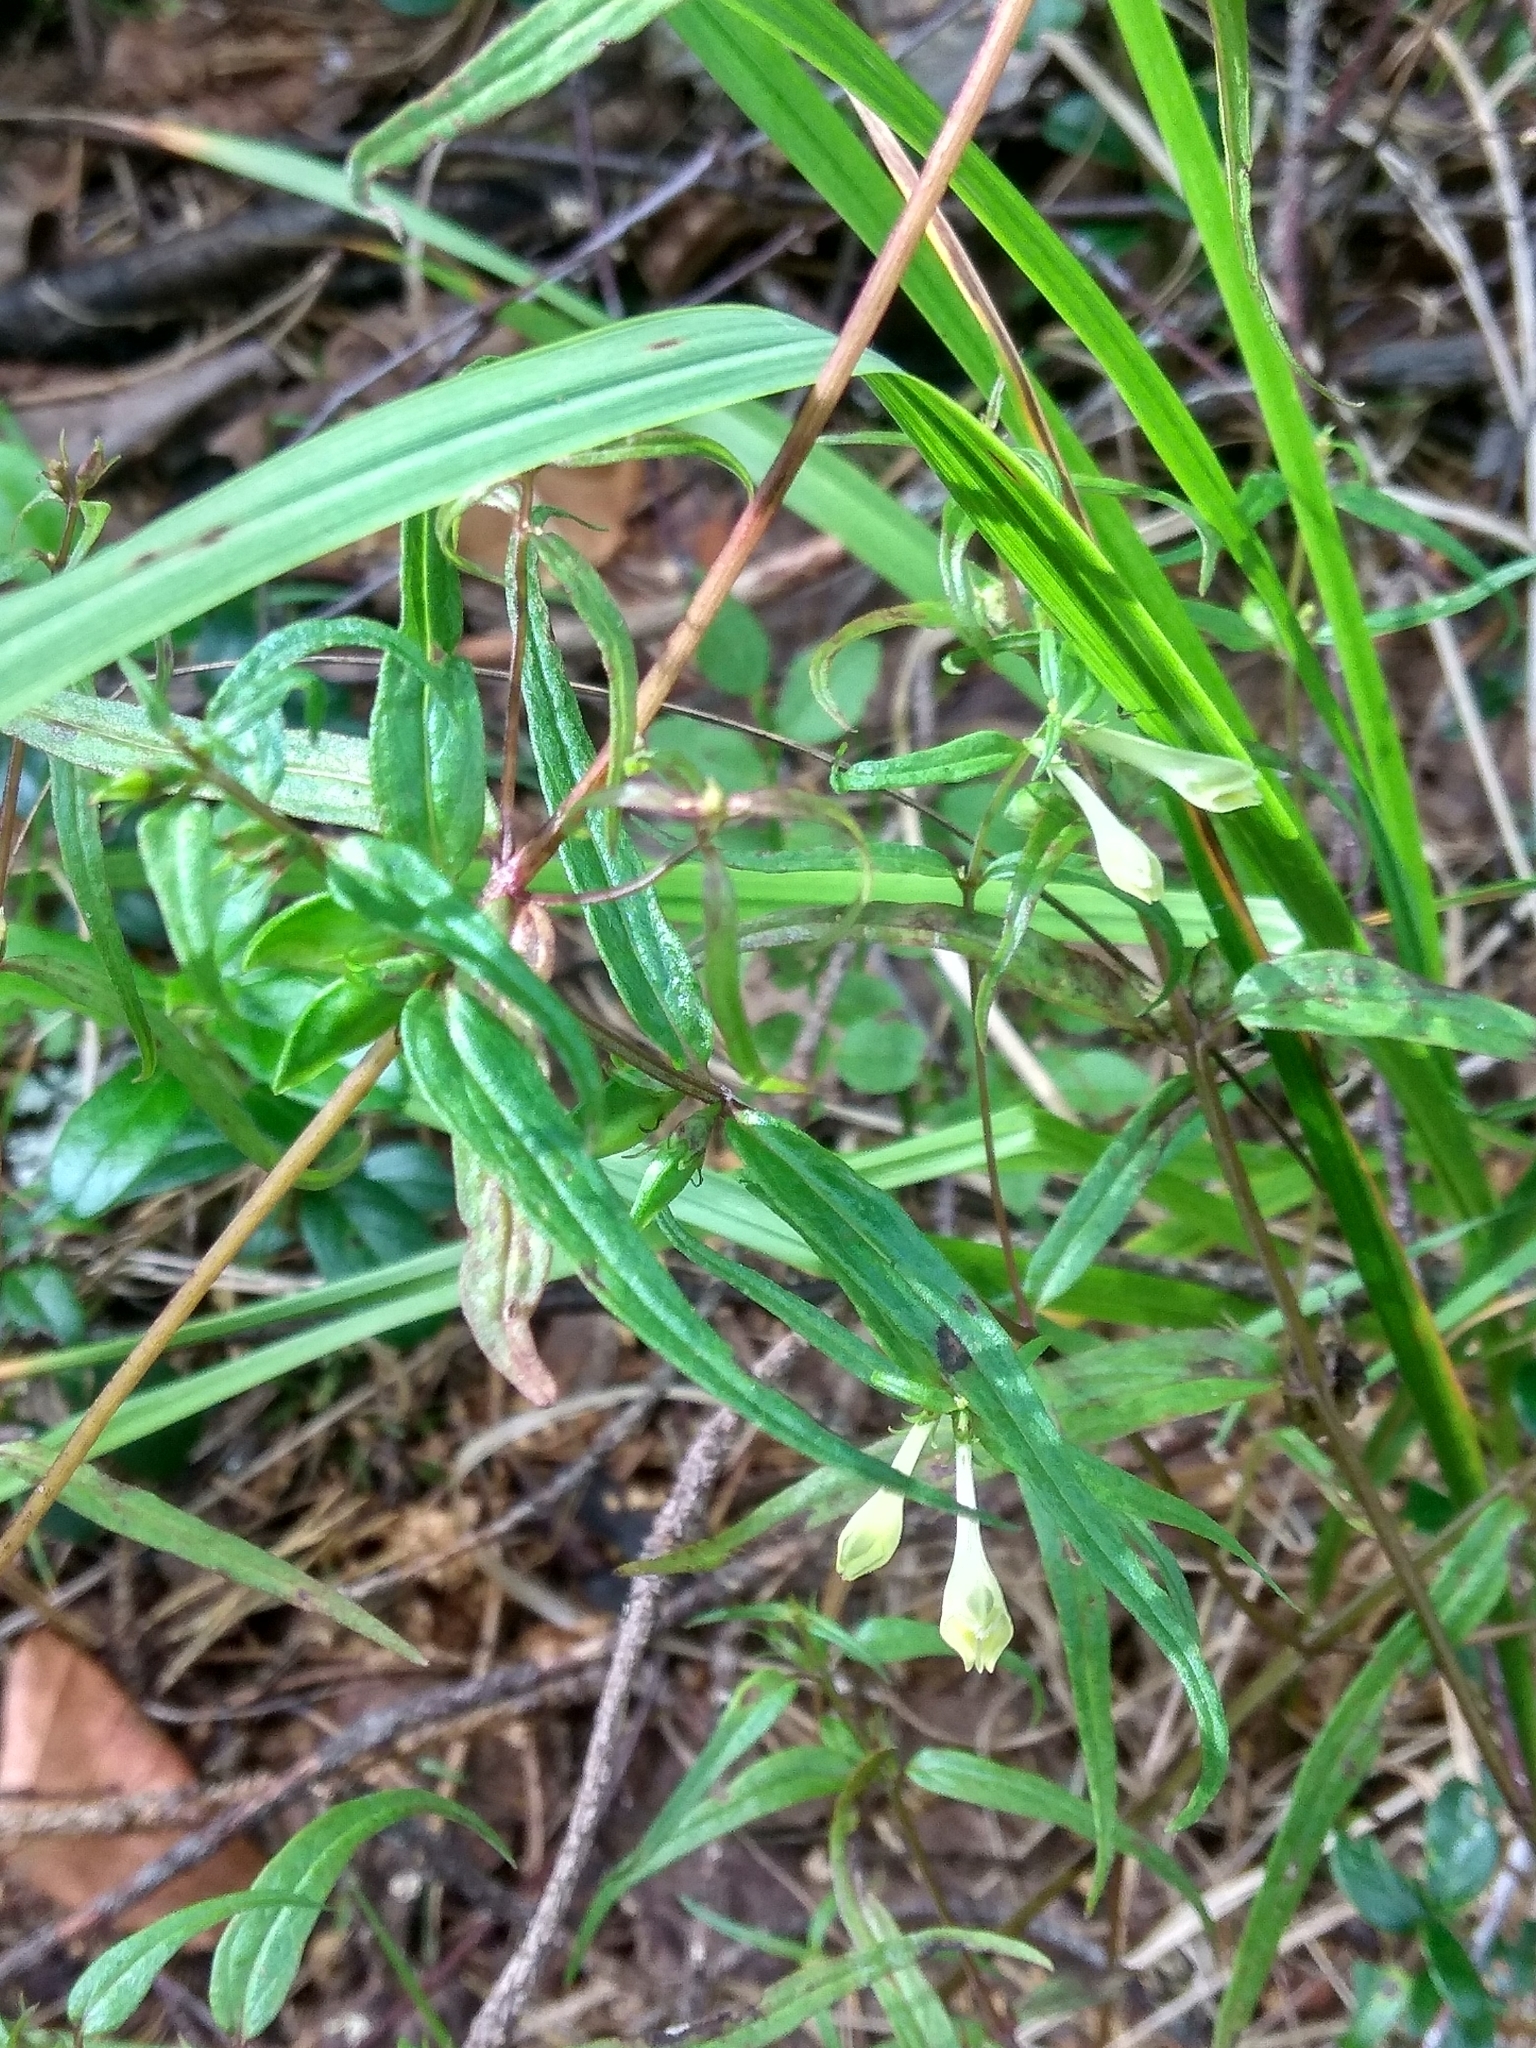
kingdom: Plantae
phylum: Tracheophyta
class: Magnoliopsida
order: Lamiales
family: Orobanchaceae
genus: Melampyrum
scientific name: Melampyrum pratense
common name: Common cow-wheat
